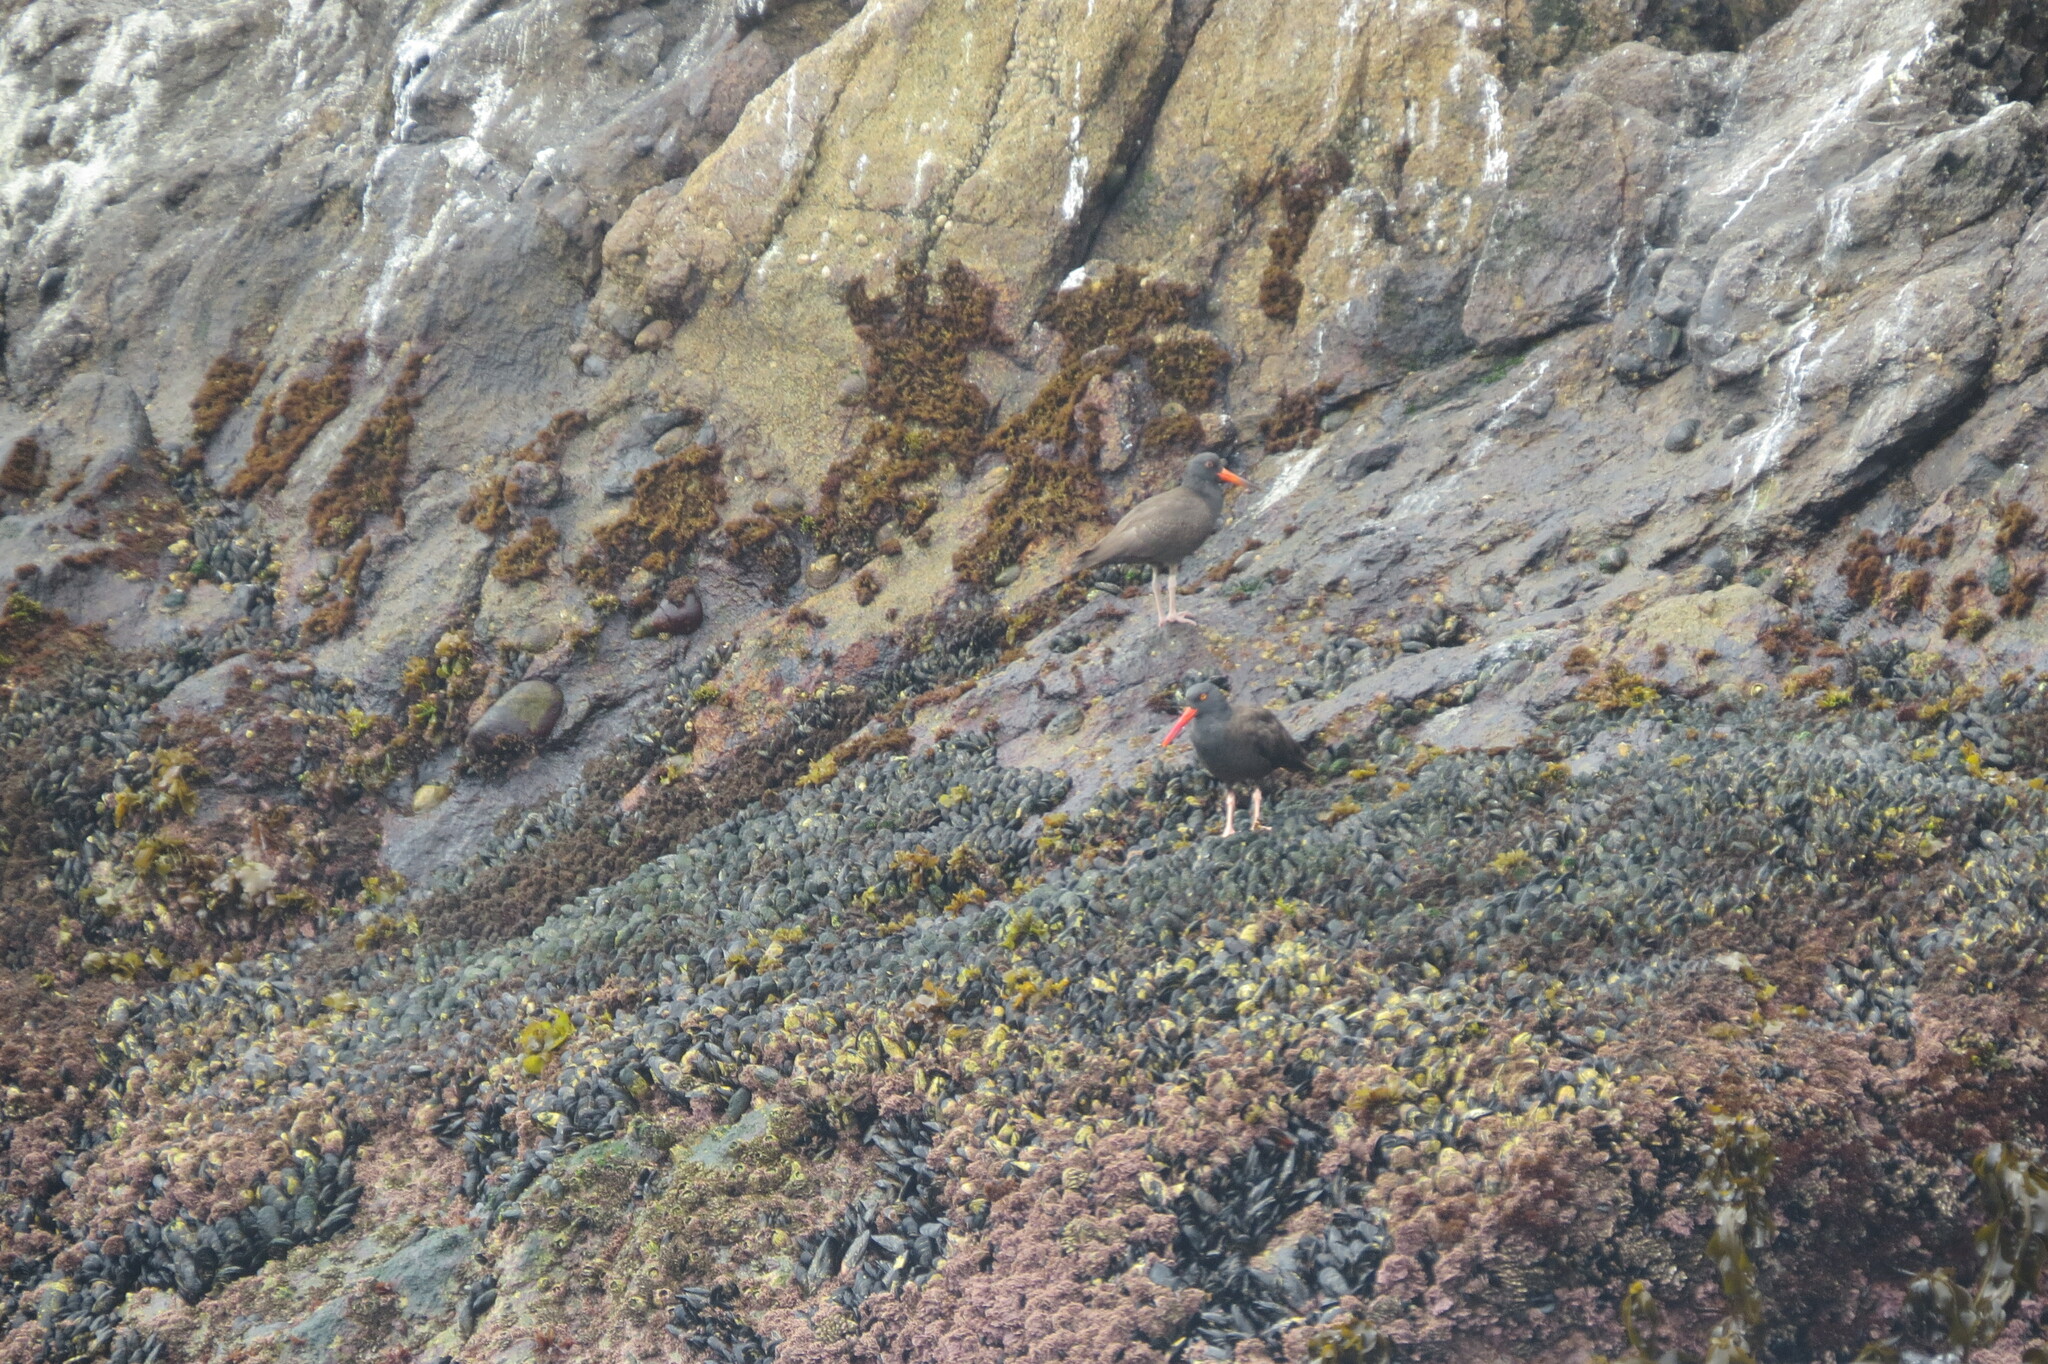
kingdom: Animalia
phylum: Chordata
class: Aves
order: Charadriiformes
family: Haematopodidae
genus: Haematopus
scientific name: Haematopus bachmani
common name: Black oystercatcher
